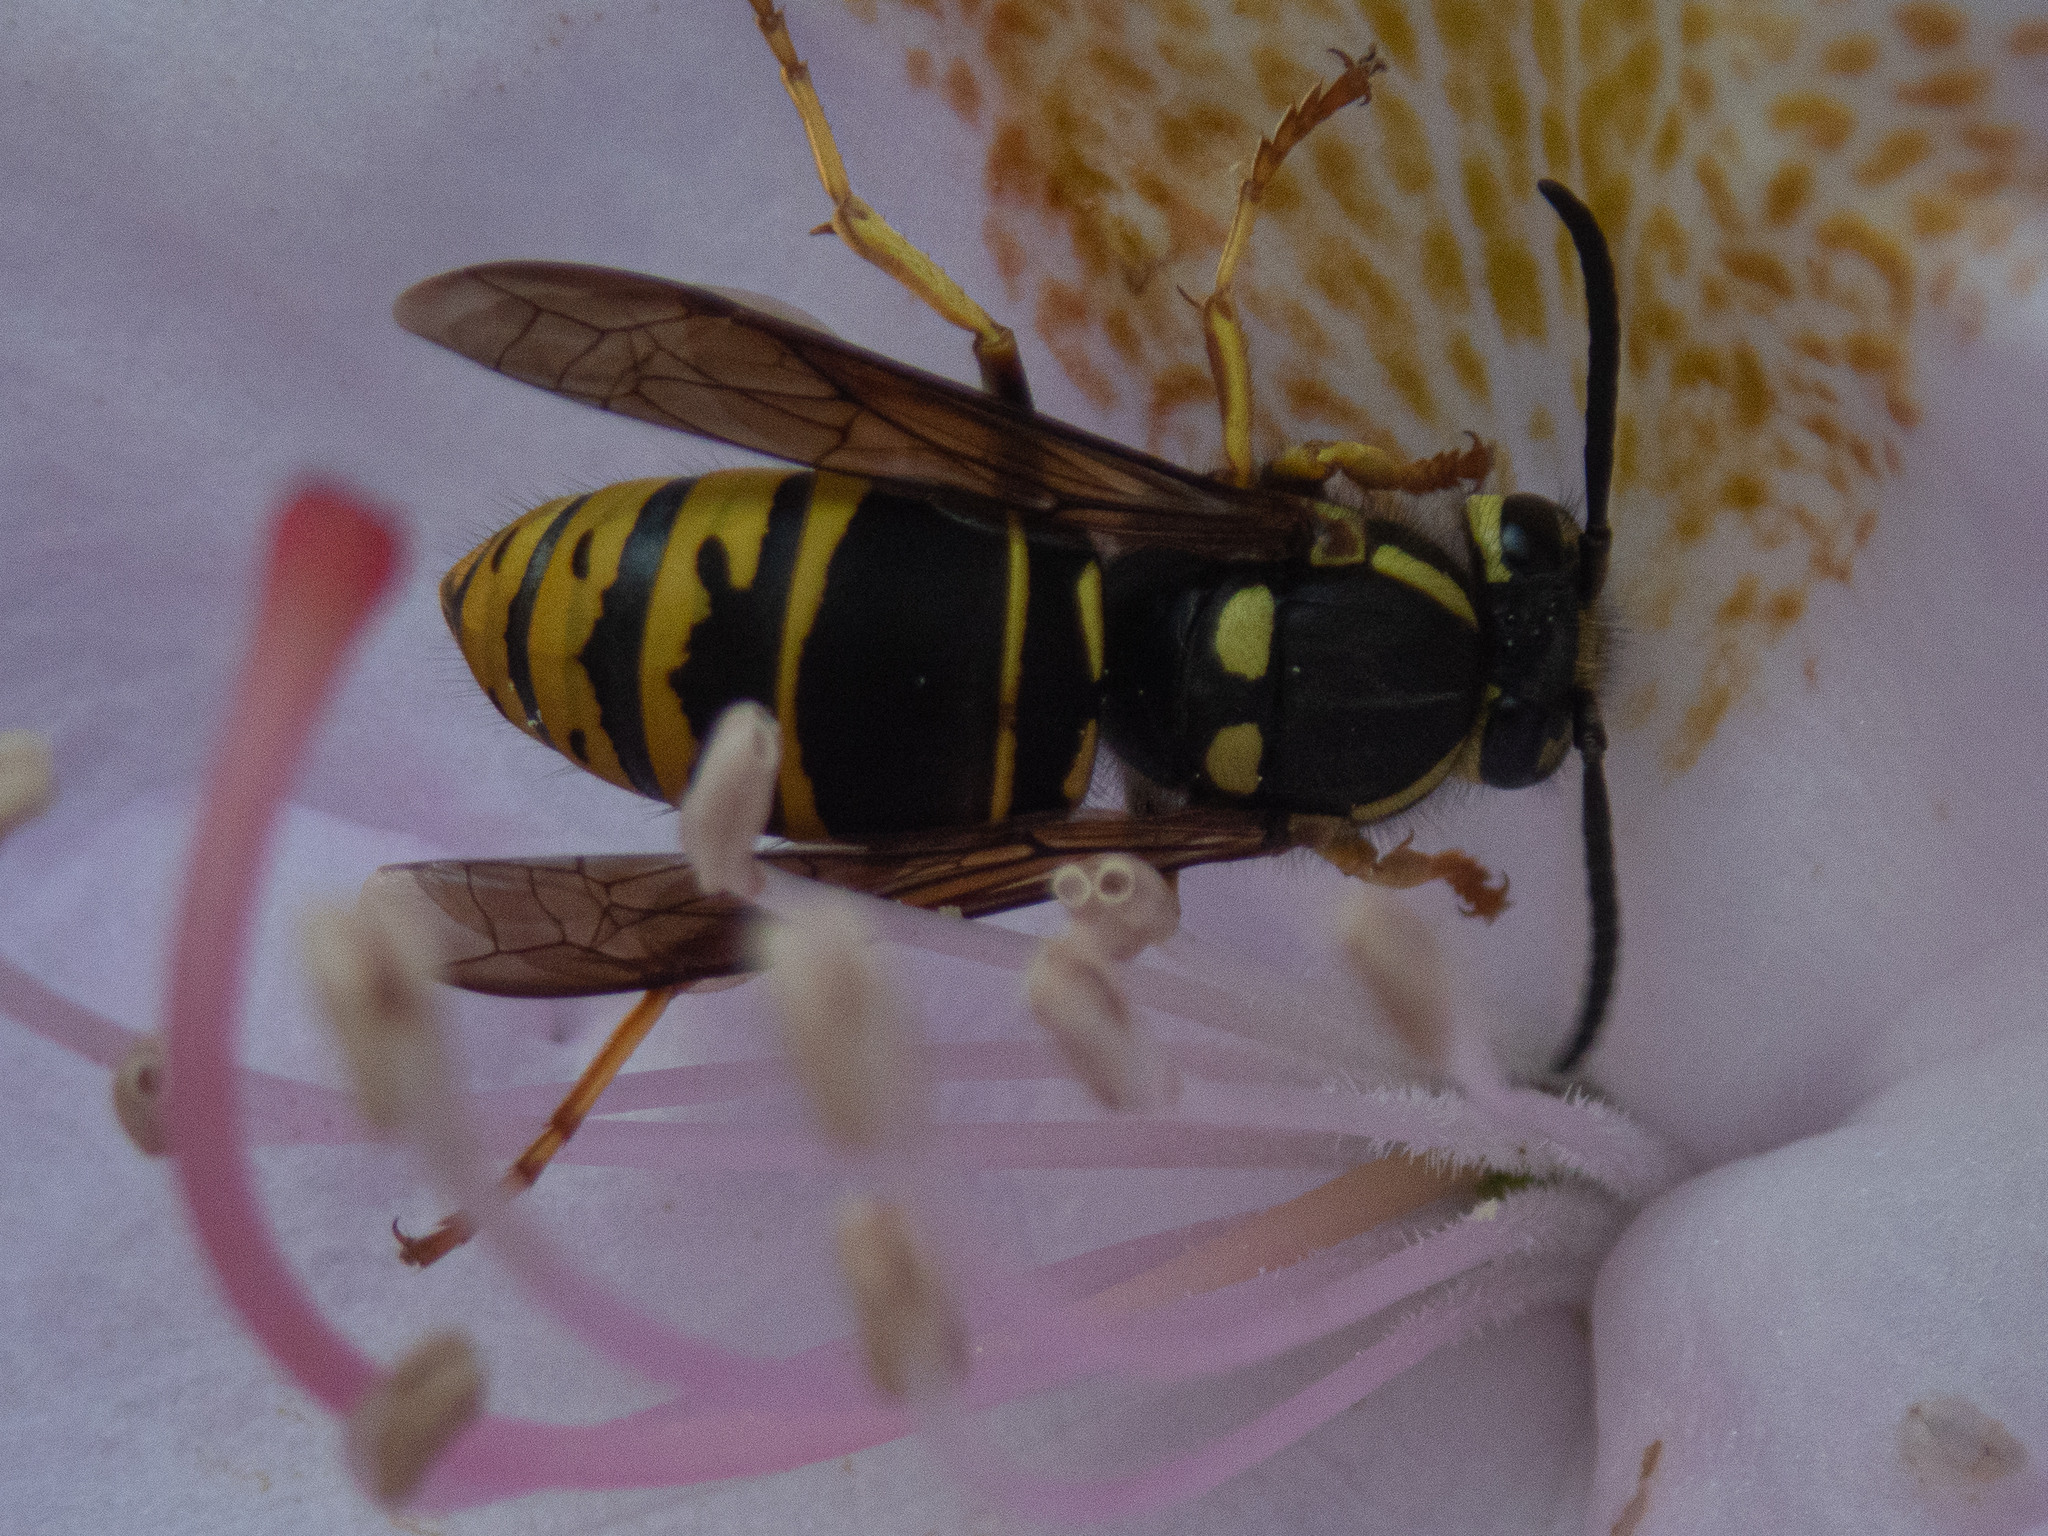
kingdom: Animalia
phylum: Arthropoda
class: Insecta
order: Hymenoptera
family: Vespidae
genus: Vespula
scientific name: Vespula vidua
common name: Widow yellowjacket
